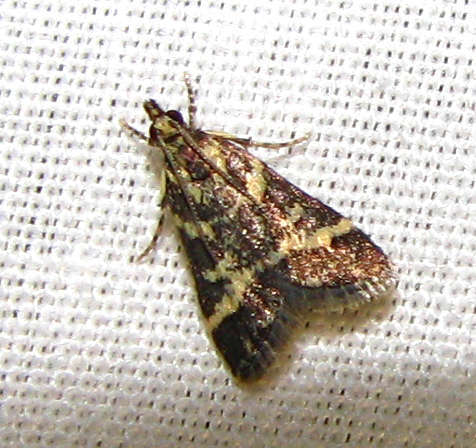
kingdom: Animalia
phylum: Arthropoda
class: Insecta
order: Lepidoptera
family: Crambidae
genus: Scoparia
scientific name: Scoparia spelaea
